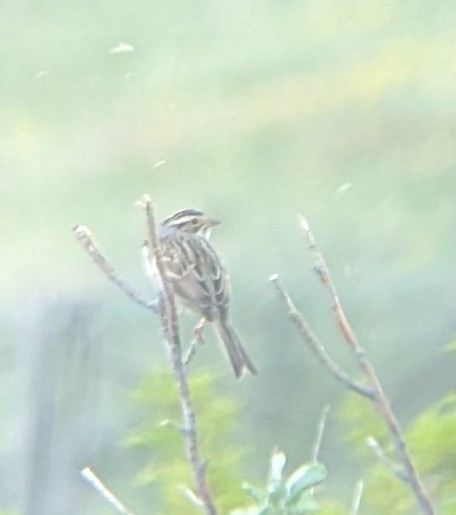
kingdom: Animalia
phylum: Chordata
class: Aves
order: Passeriformes
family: Passerellidae
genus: Spizella
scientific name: Spizella pallida
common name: Clay-colored sparrow
